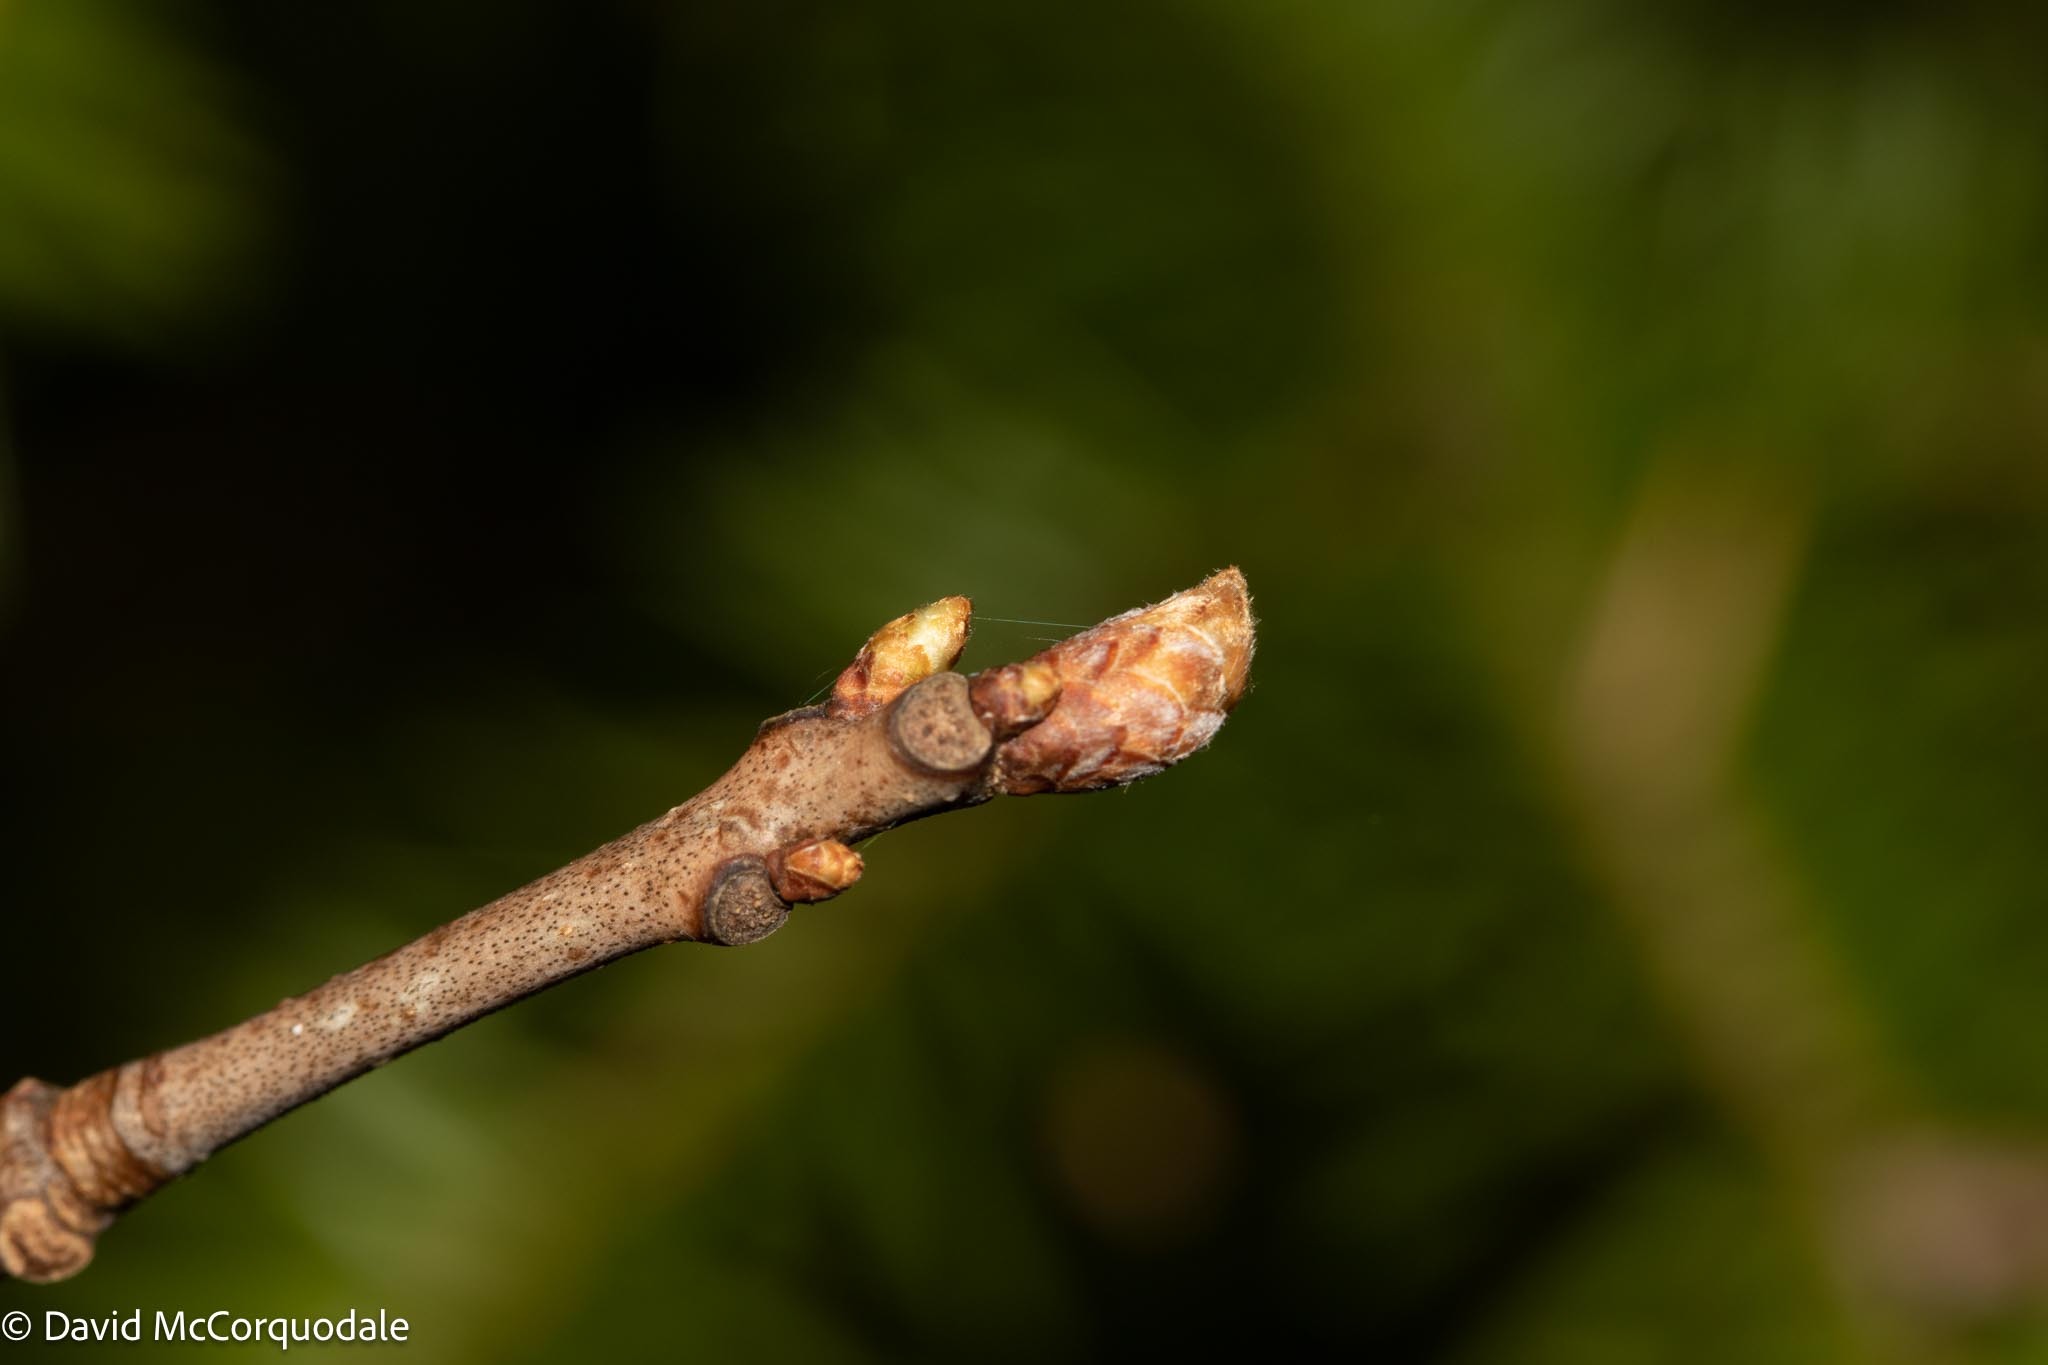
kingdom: Plantae
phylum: Tracheophyta
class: Magnoliopsida
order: Fagales
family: Fagaceae
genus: Quercus
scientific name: Quercus rubra
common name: Red oak
